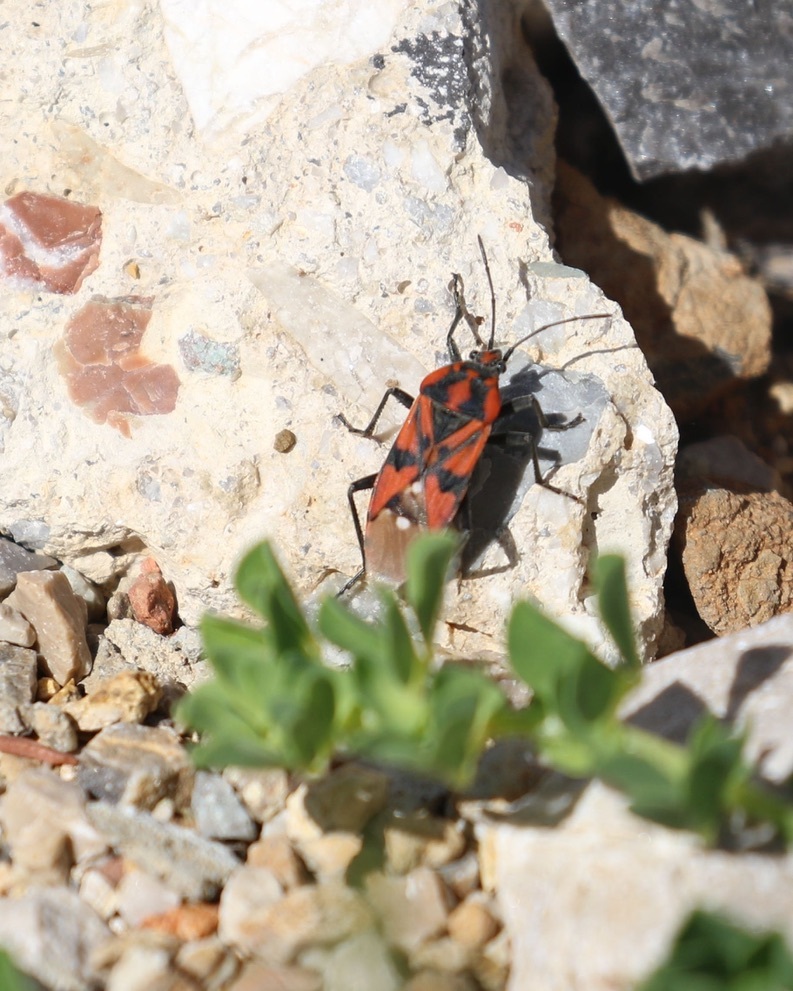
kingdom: Animalia
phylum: Arthropoda
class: Insecta
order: Hemiptera
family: Lygaeidae
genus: Spilostethus
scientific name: Spilostethus pandurus
